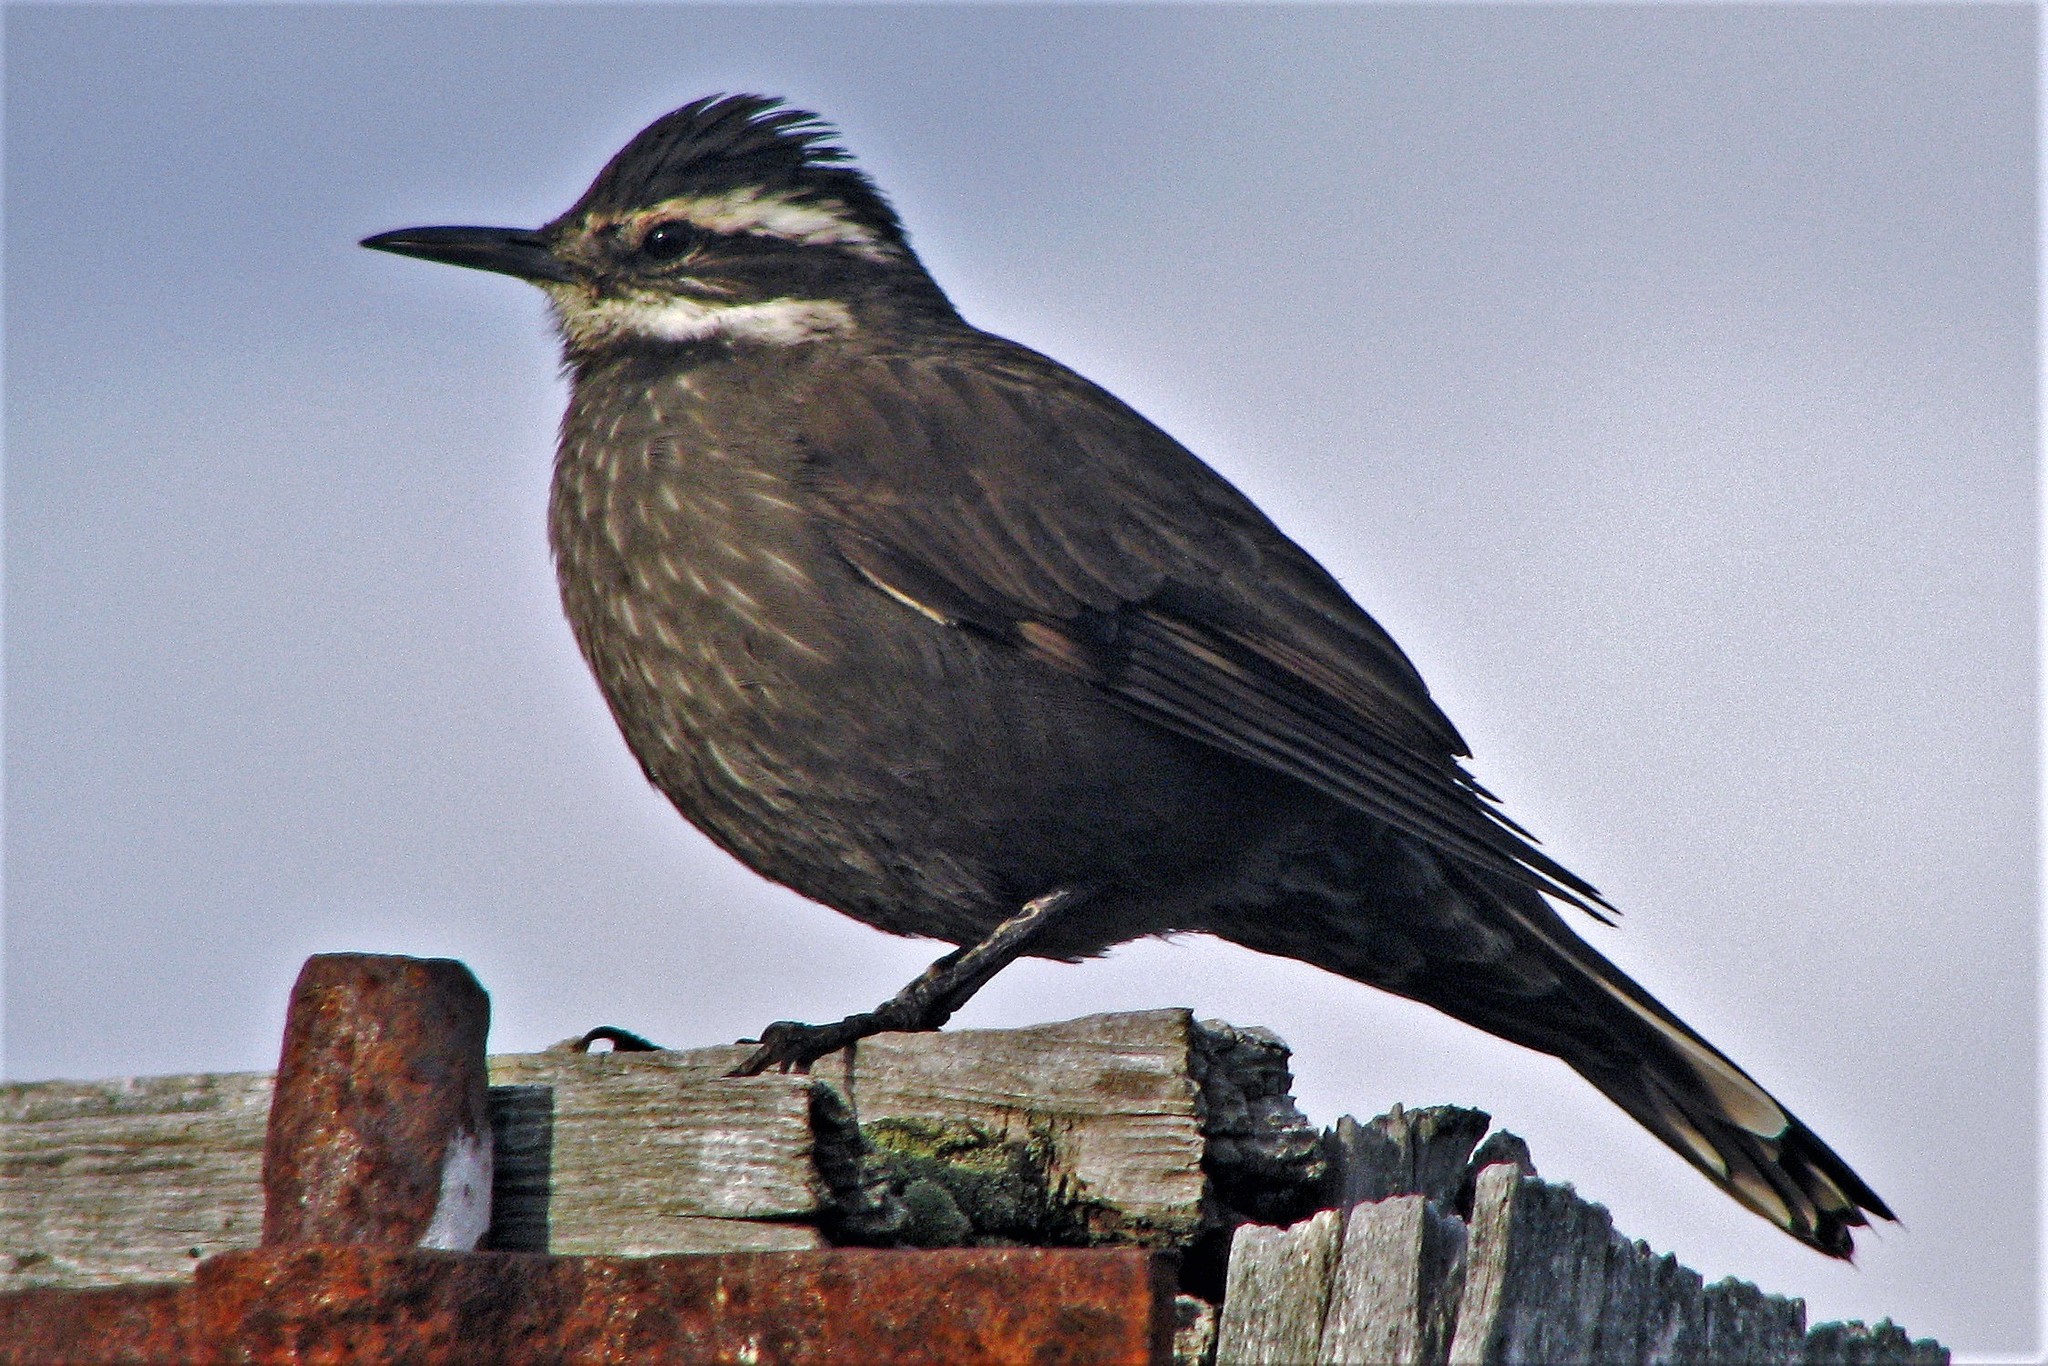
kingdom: Animalia
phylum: Chordata
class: Aves
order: Passeriformes
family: Furnariidae
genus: Cinclodes
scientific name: Cinclodes patagonicus
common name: Dark-bellied cinclodes
